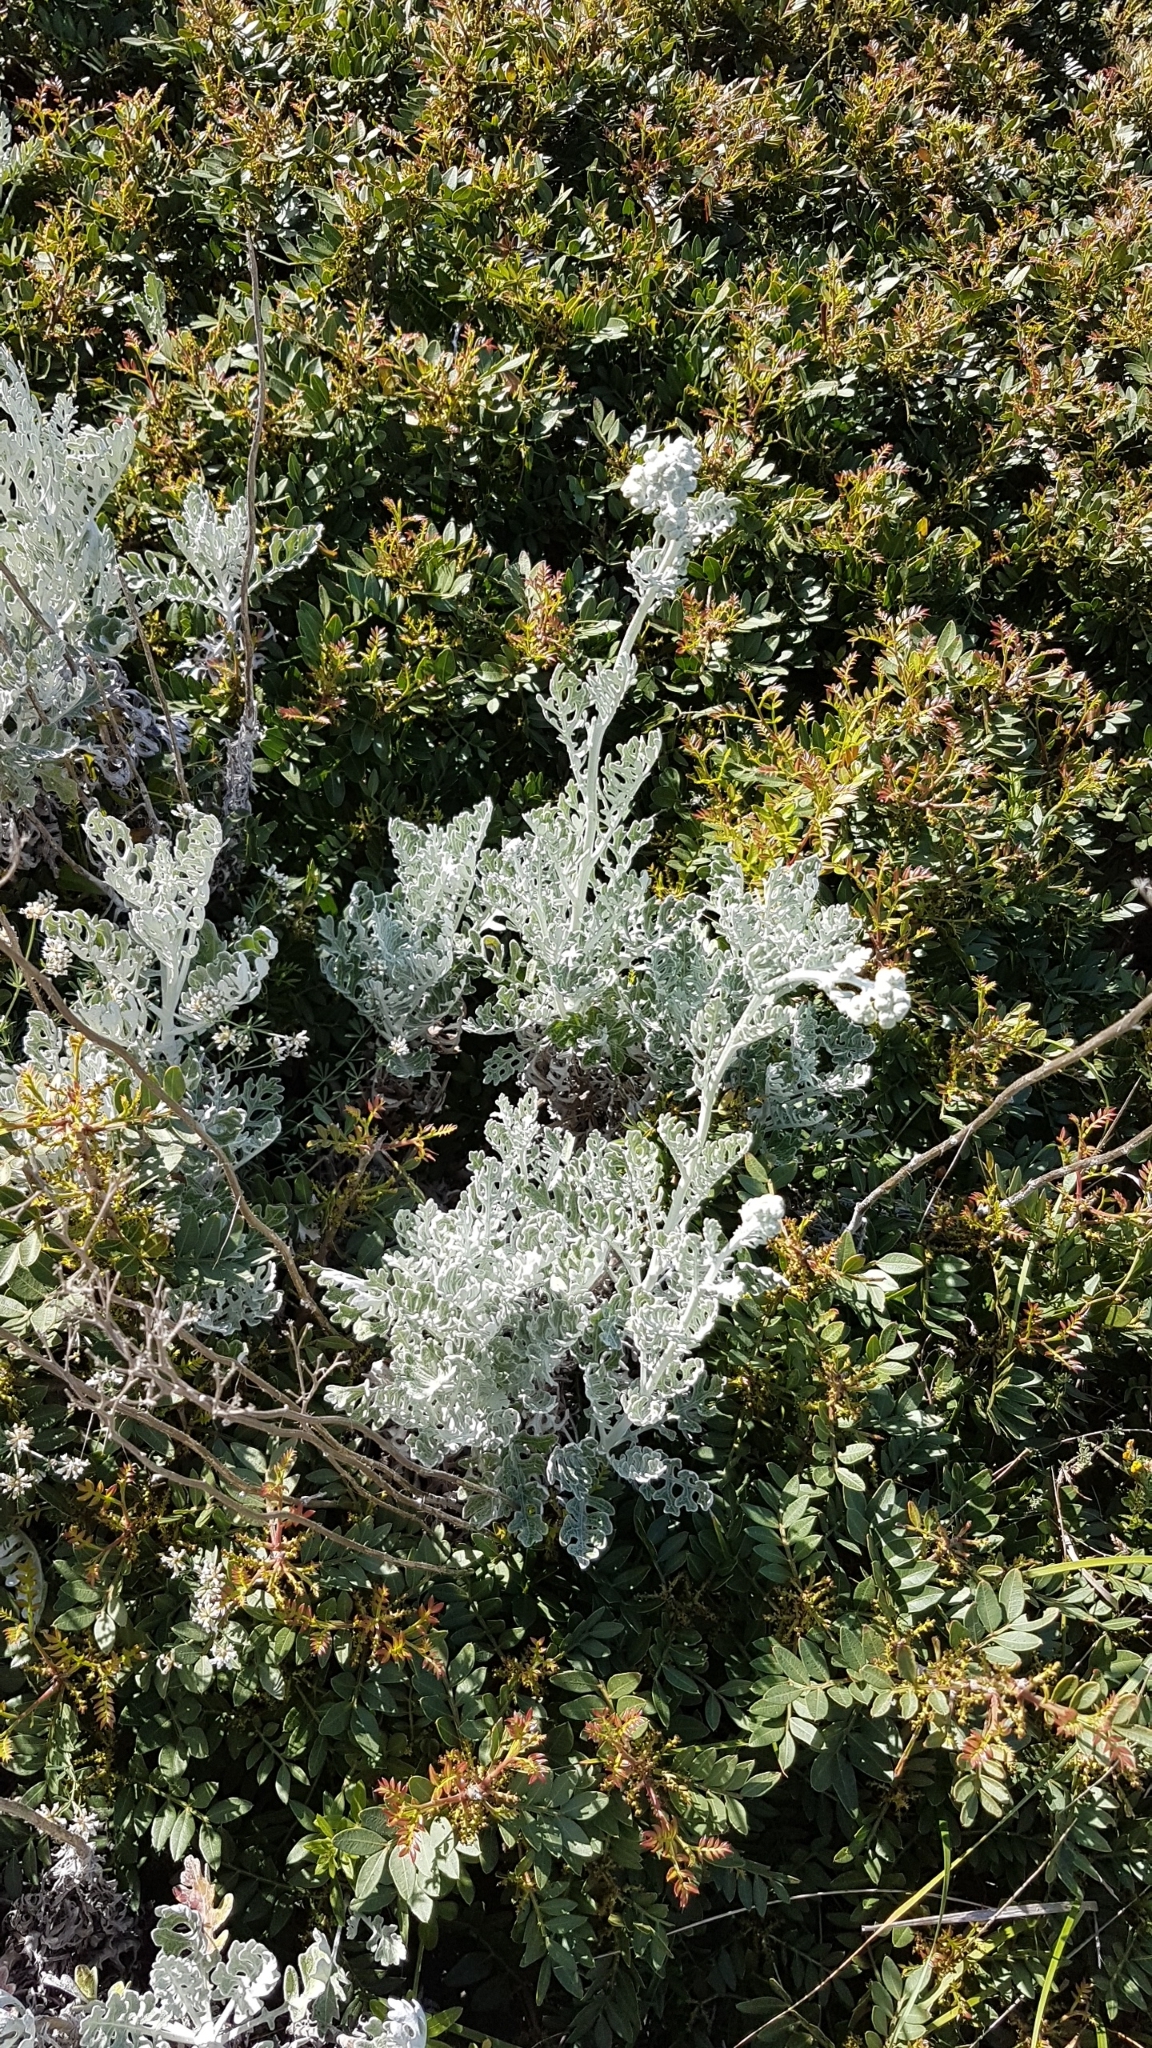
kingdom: Plantae
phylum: Tracheophyta
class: Magnoliopsida
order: Asterales
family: Asteraceae
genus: Jacobaea
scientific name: Jacobaea maritima
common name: Silver ragwort
